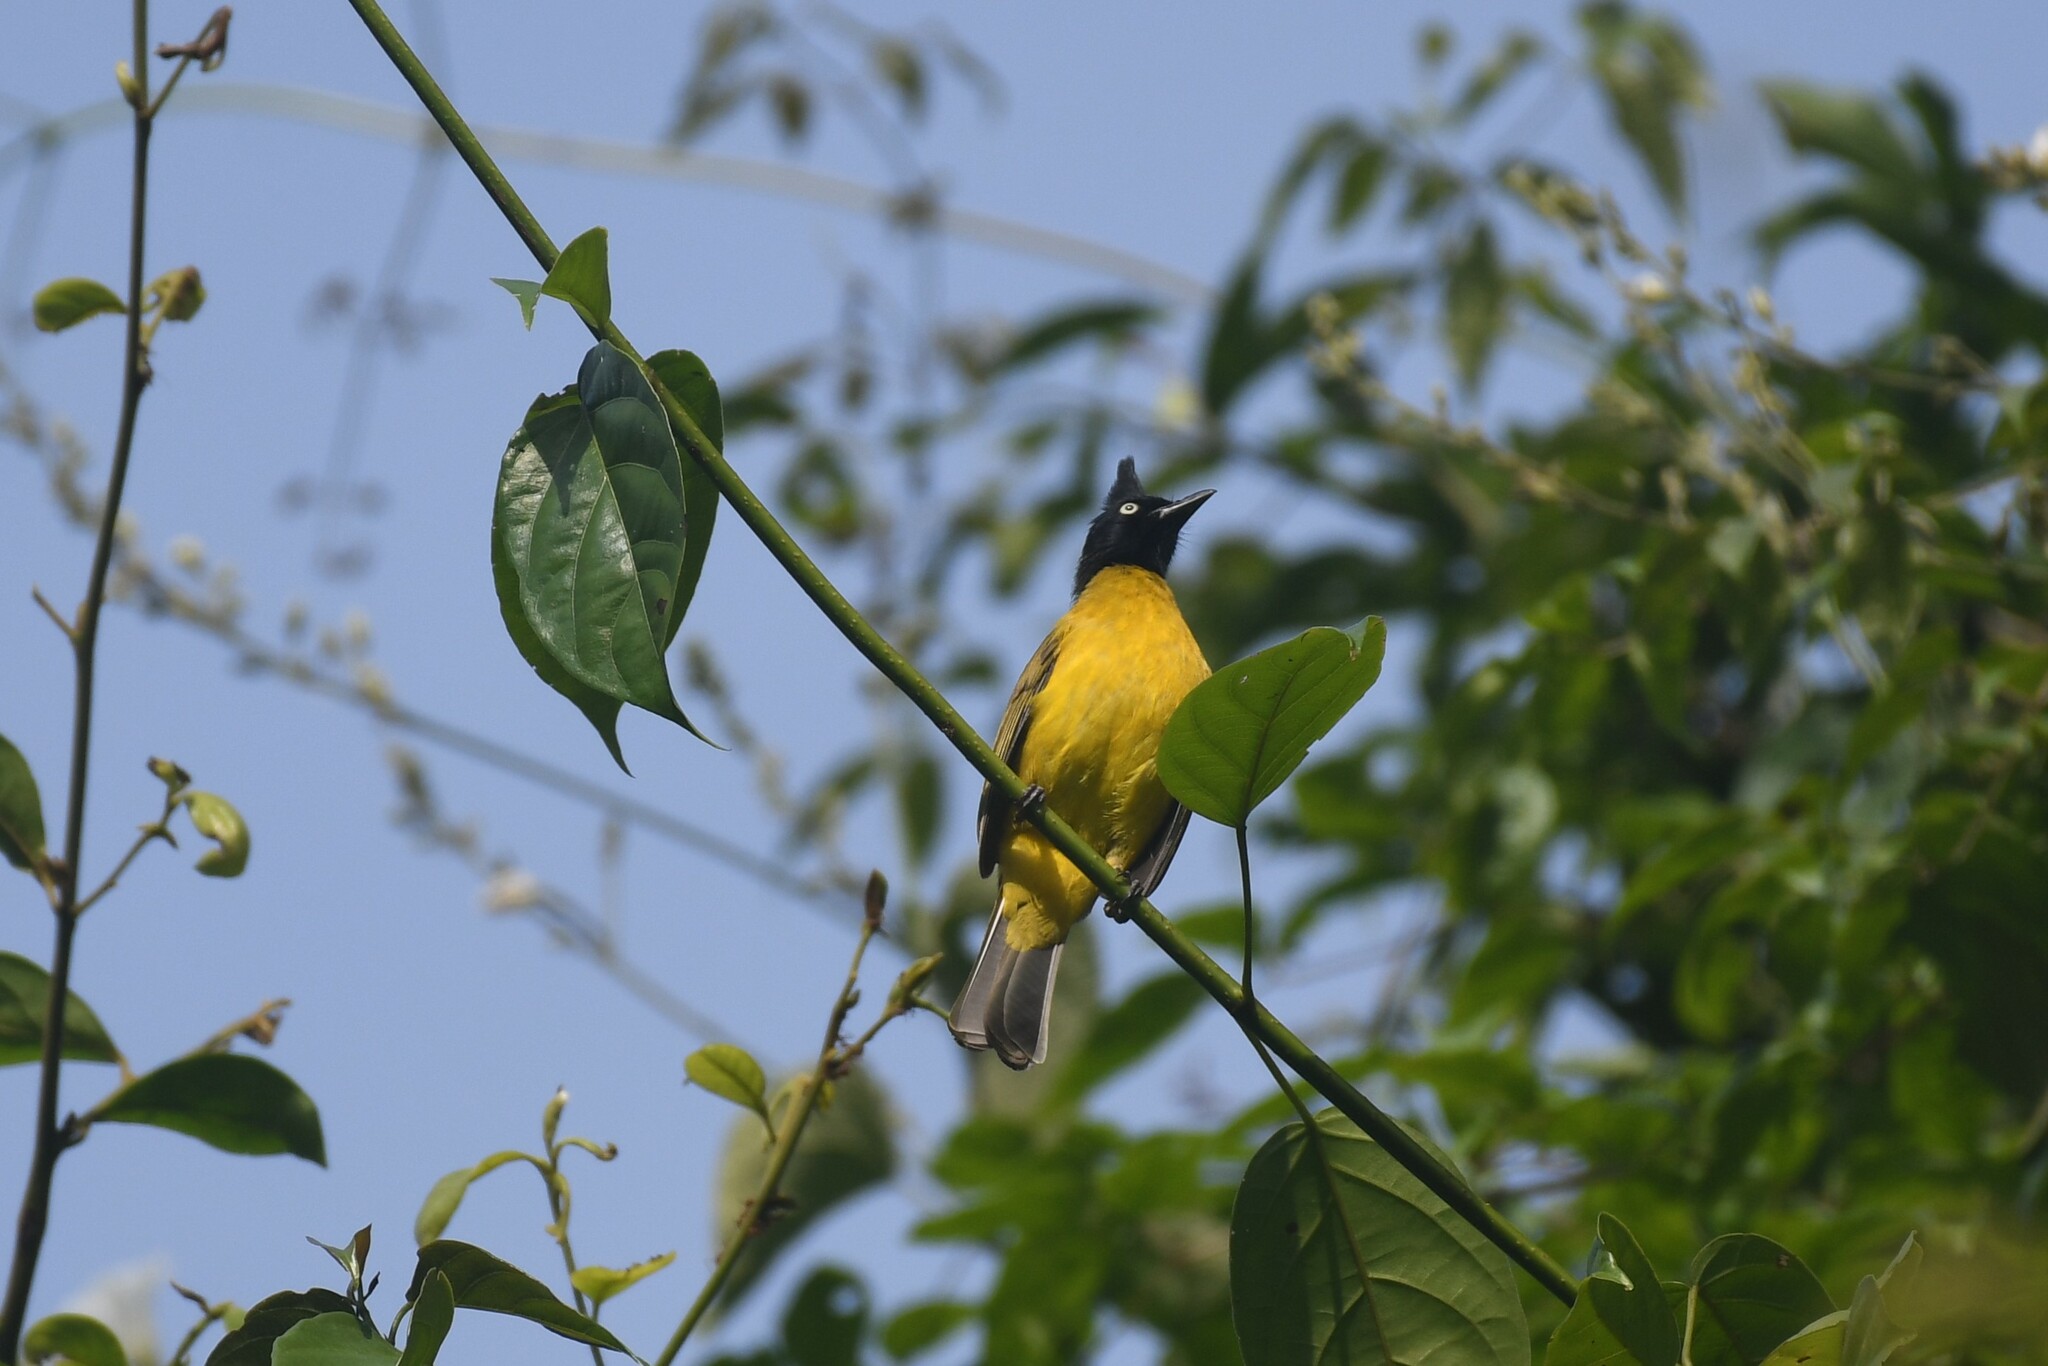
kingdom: Animalia
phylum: Chordata
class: Aves
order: Passeriformes
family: Pycnonotidae
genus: Pycnonotus
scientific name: Pycnonotus flaviventris
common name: Black-crested bulbul
